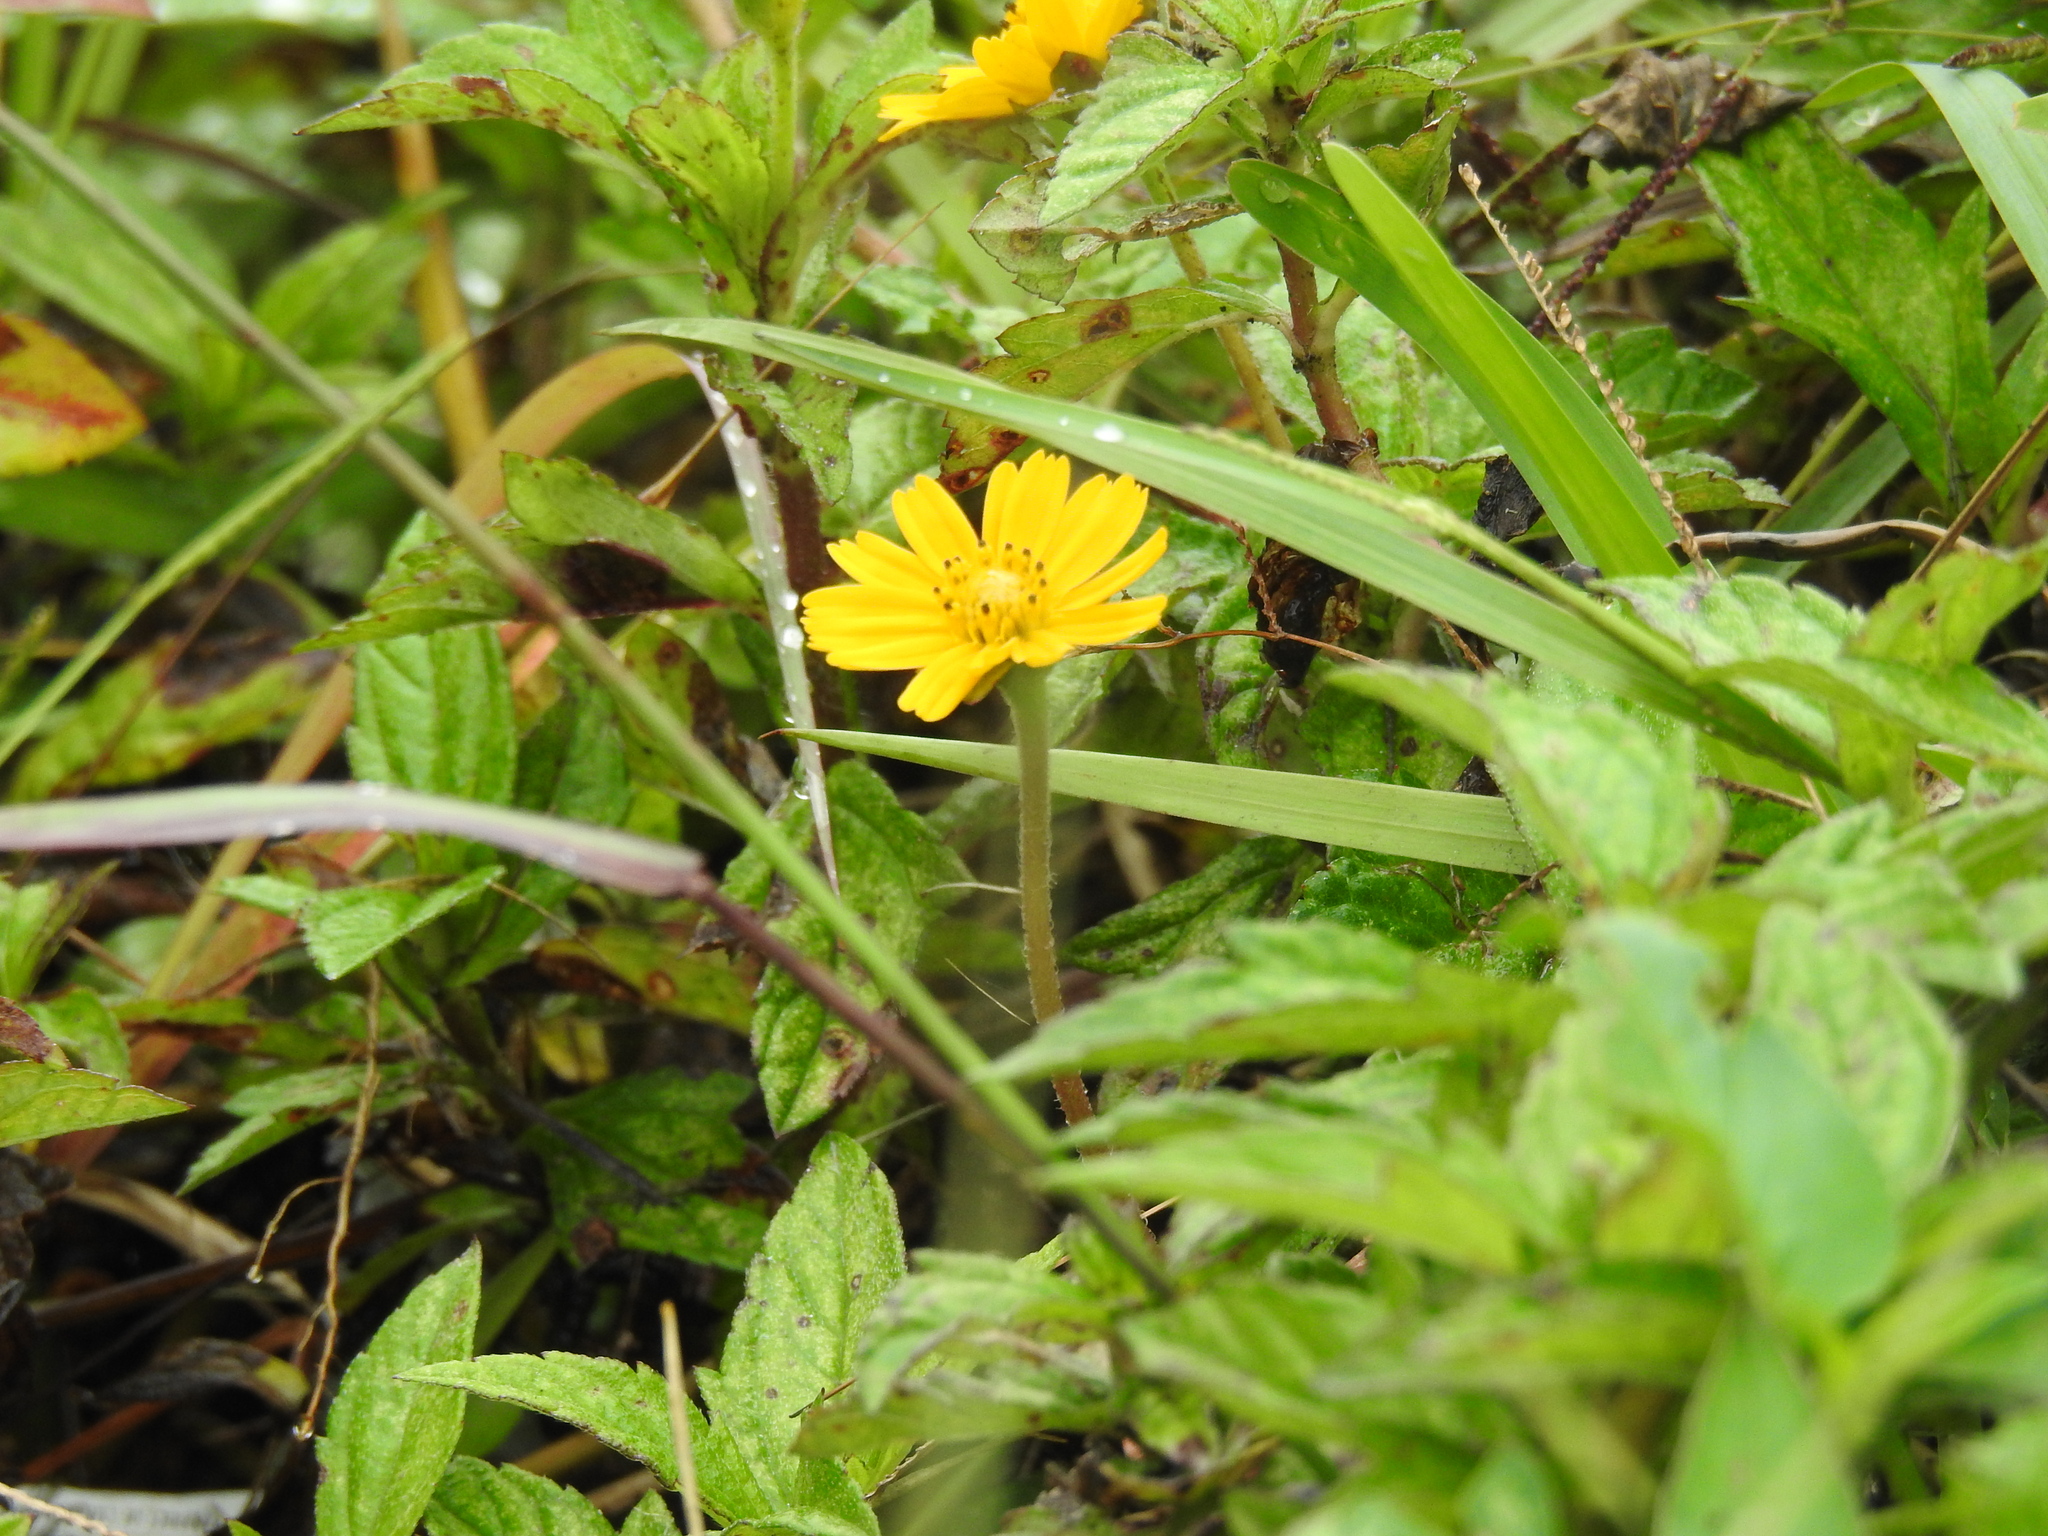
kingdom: Plantae
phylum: Tracheophyta
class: Magnoliopsida
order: Asterales
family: Asteraceae
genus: Sphagneticola
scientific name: Sphagneticola trilobata
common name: Bay biscayne creeping-oxeye
